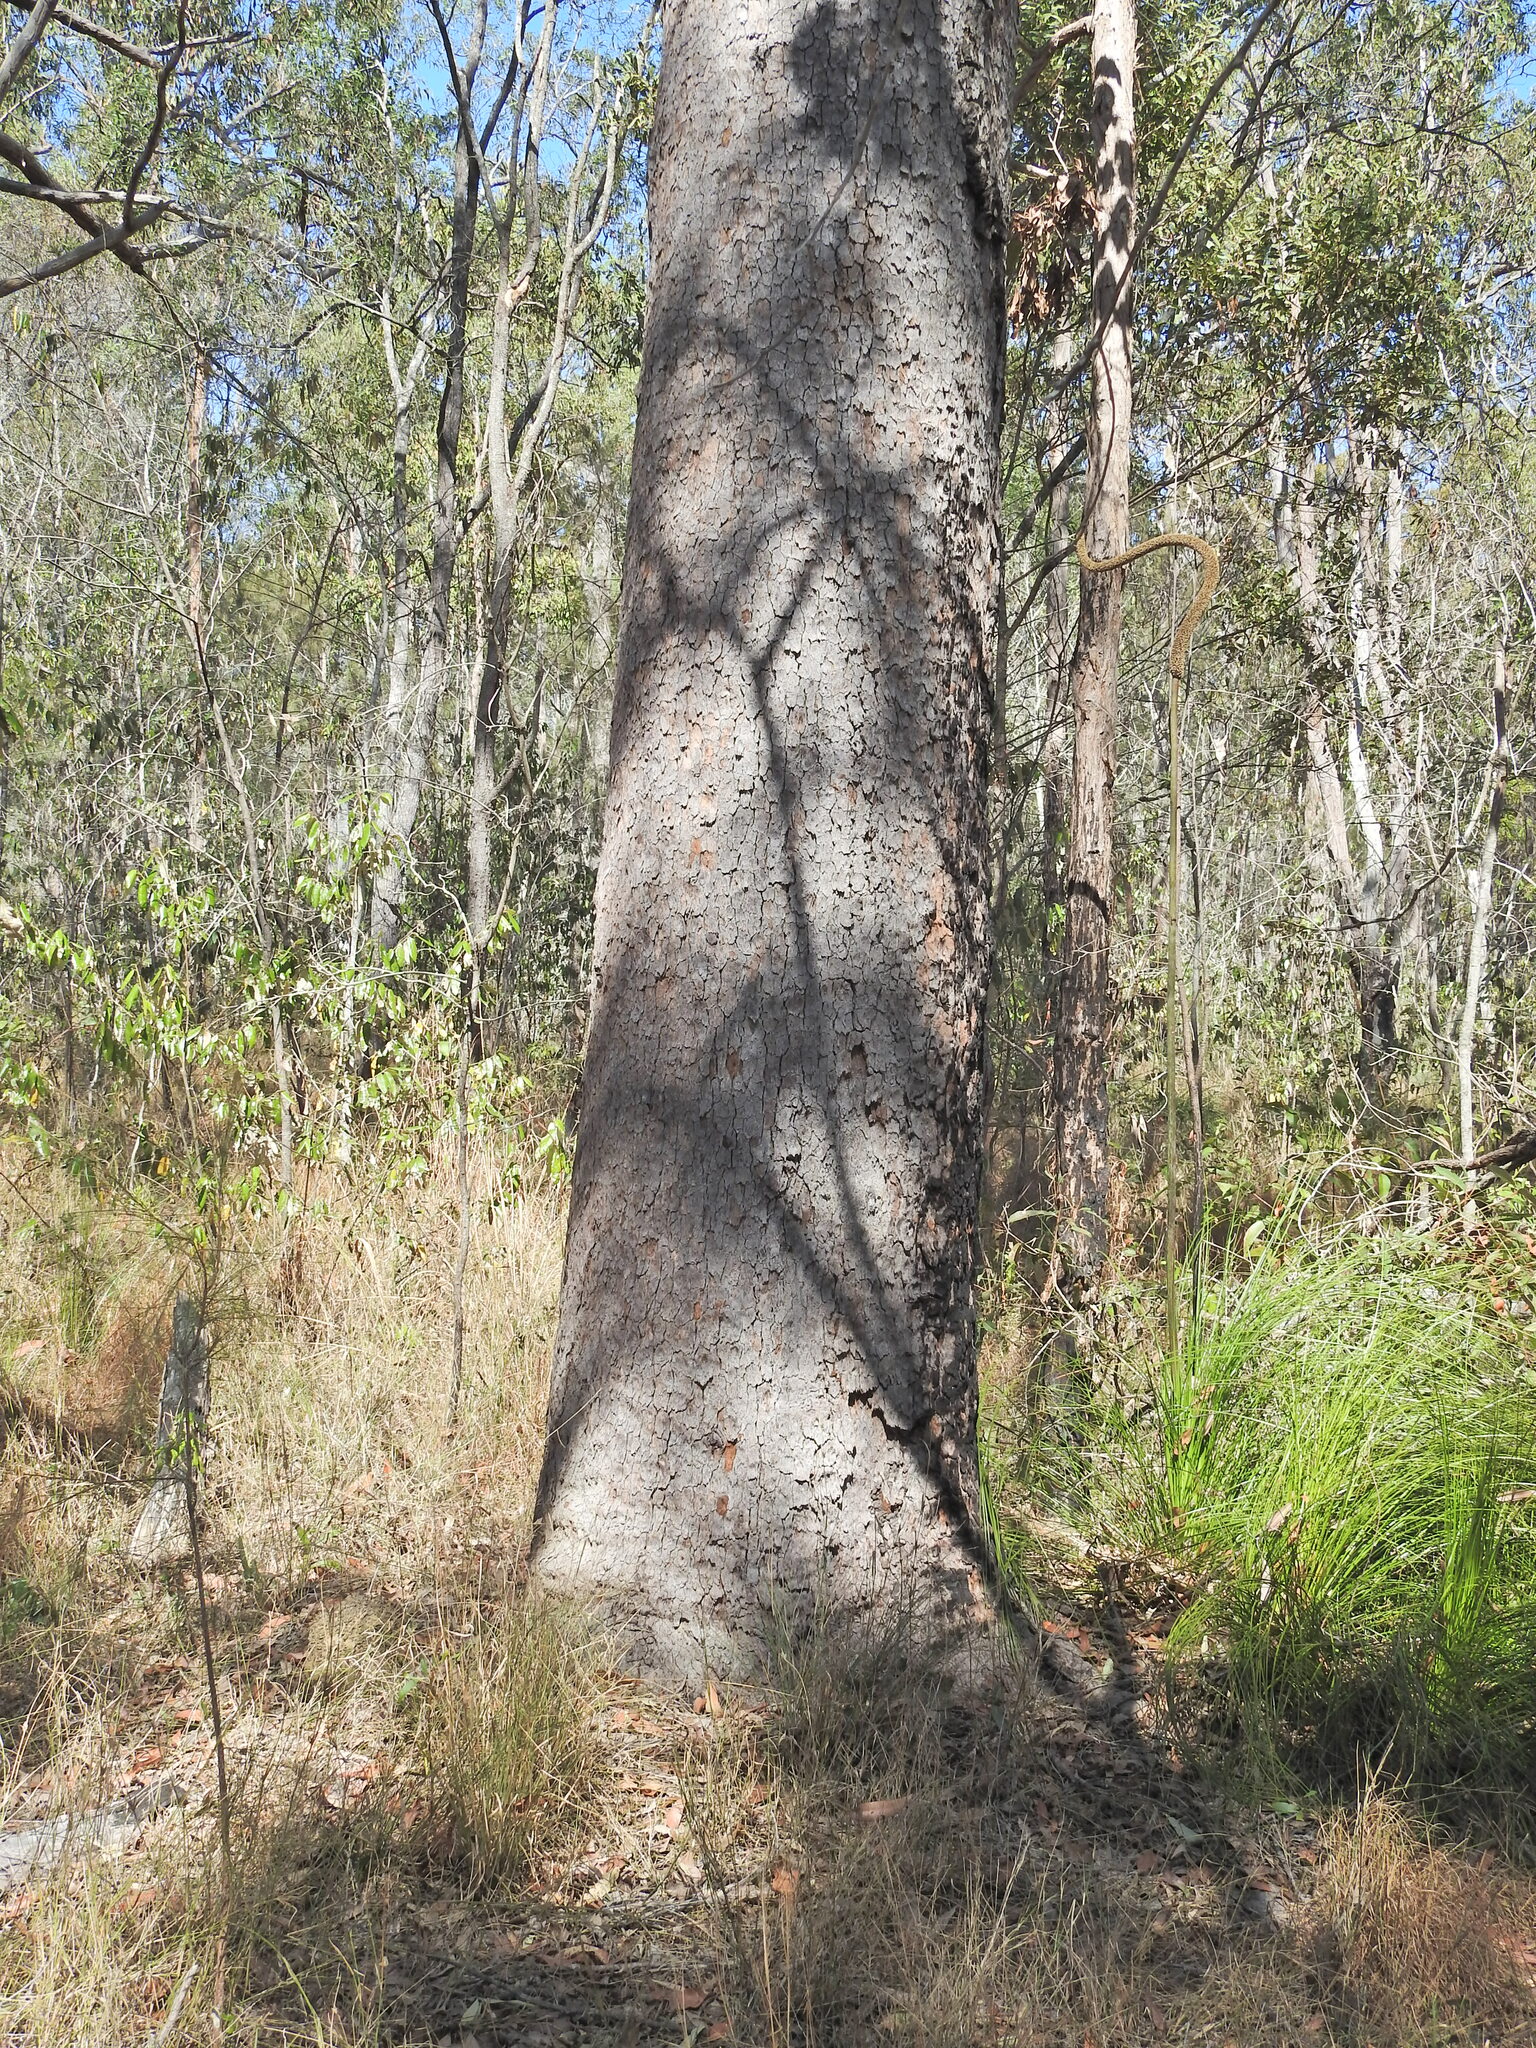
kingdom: Plantae
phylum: Tracheophyta
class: Magnoliopsida
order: Myrtales
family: Myrtaceae
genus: Corymbia
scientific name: Corymbia intermedia
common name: Pink-bloodwood
